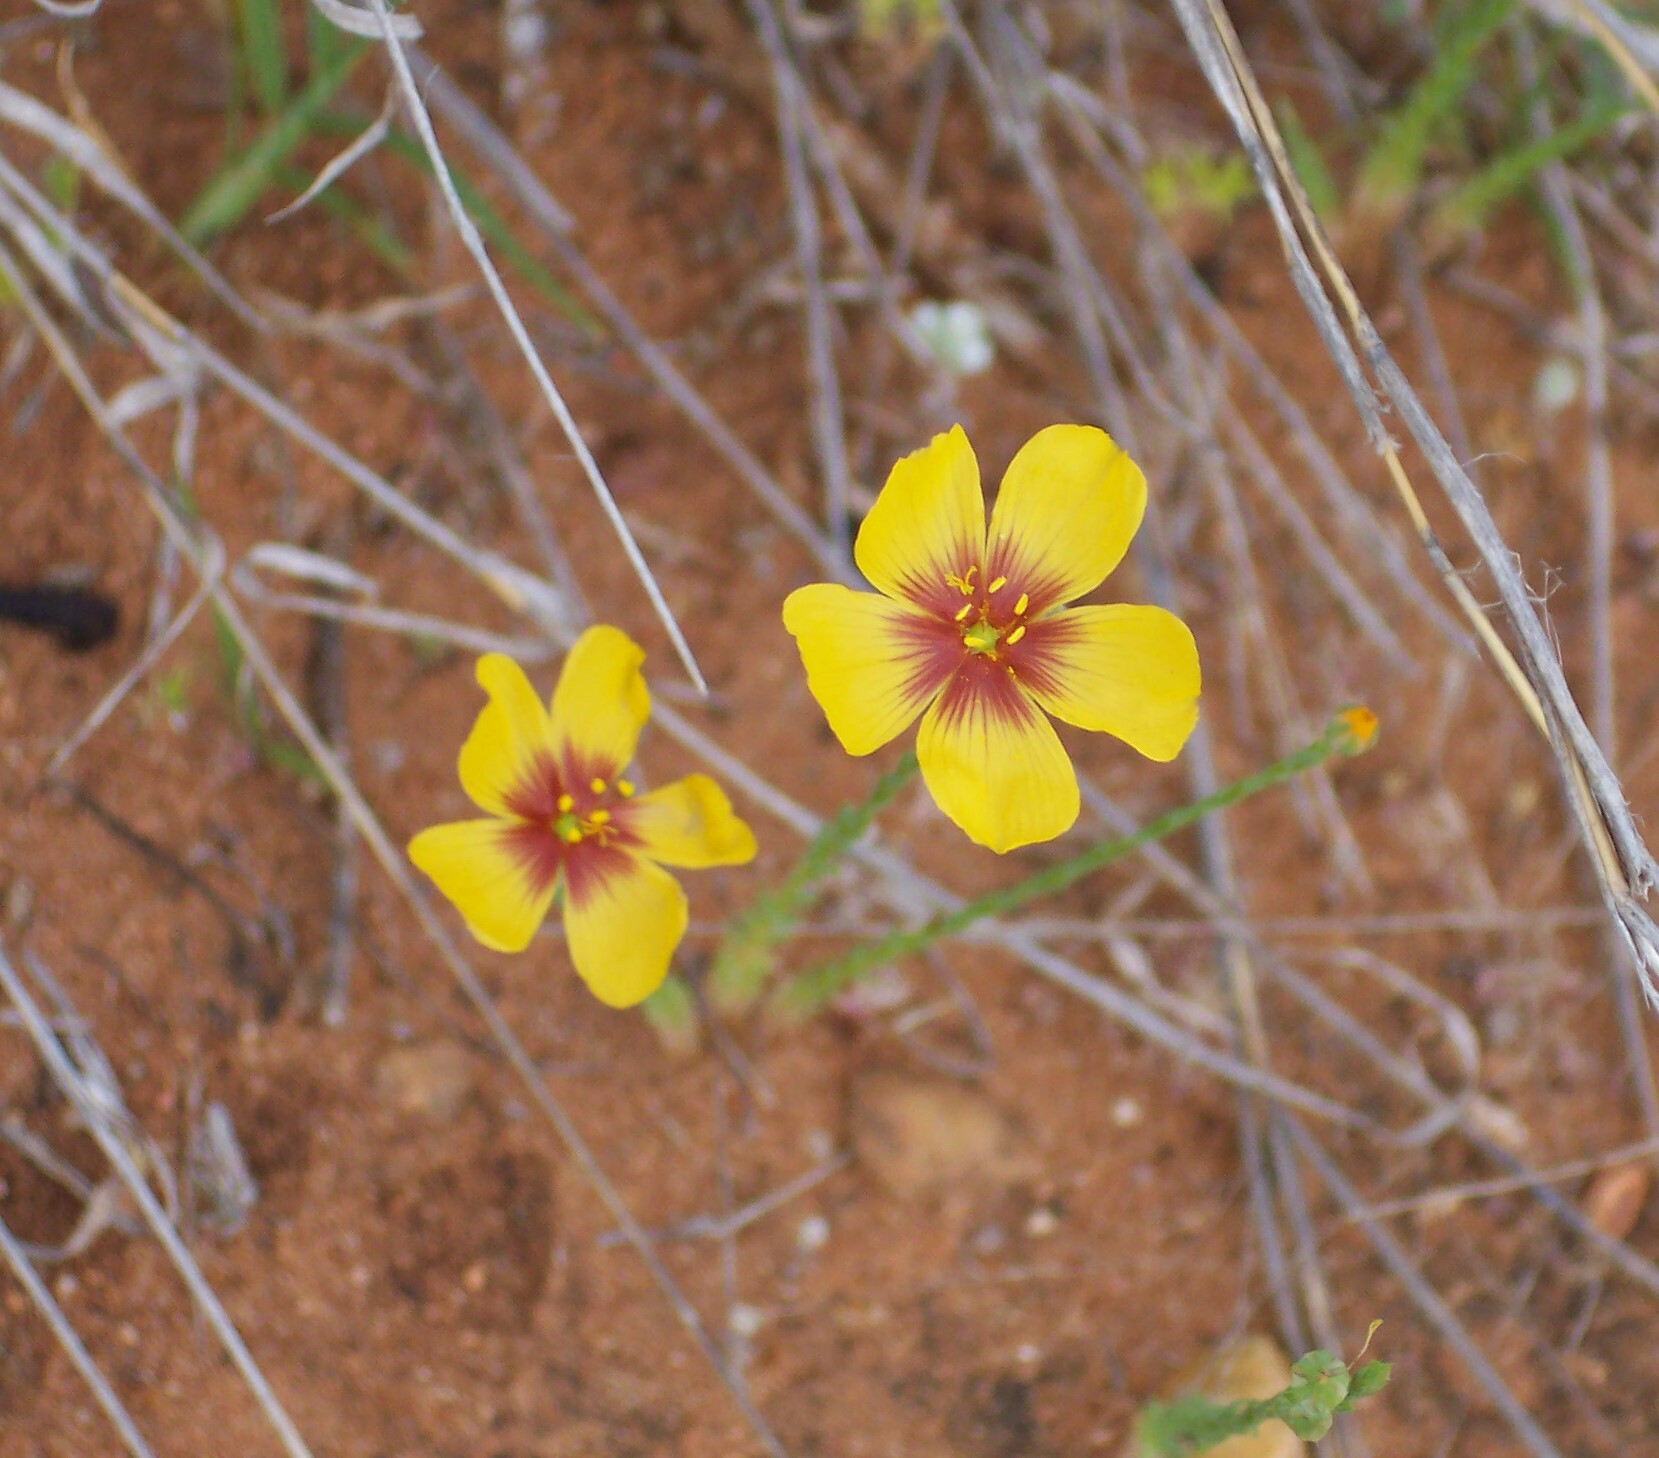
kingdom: Plantae
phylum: Tracheophyta
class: Magnoliopsida
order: Malpighiales
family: Linaceae
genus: Linum
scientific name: Linum hudsonioides
